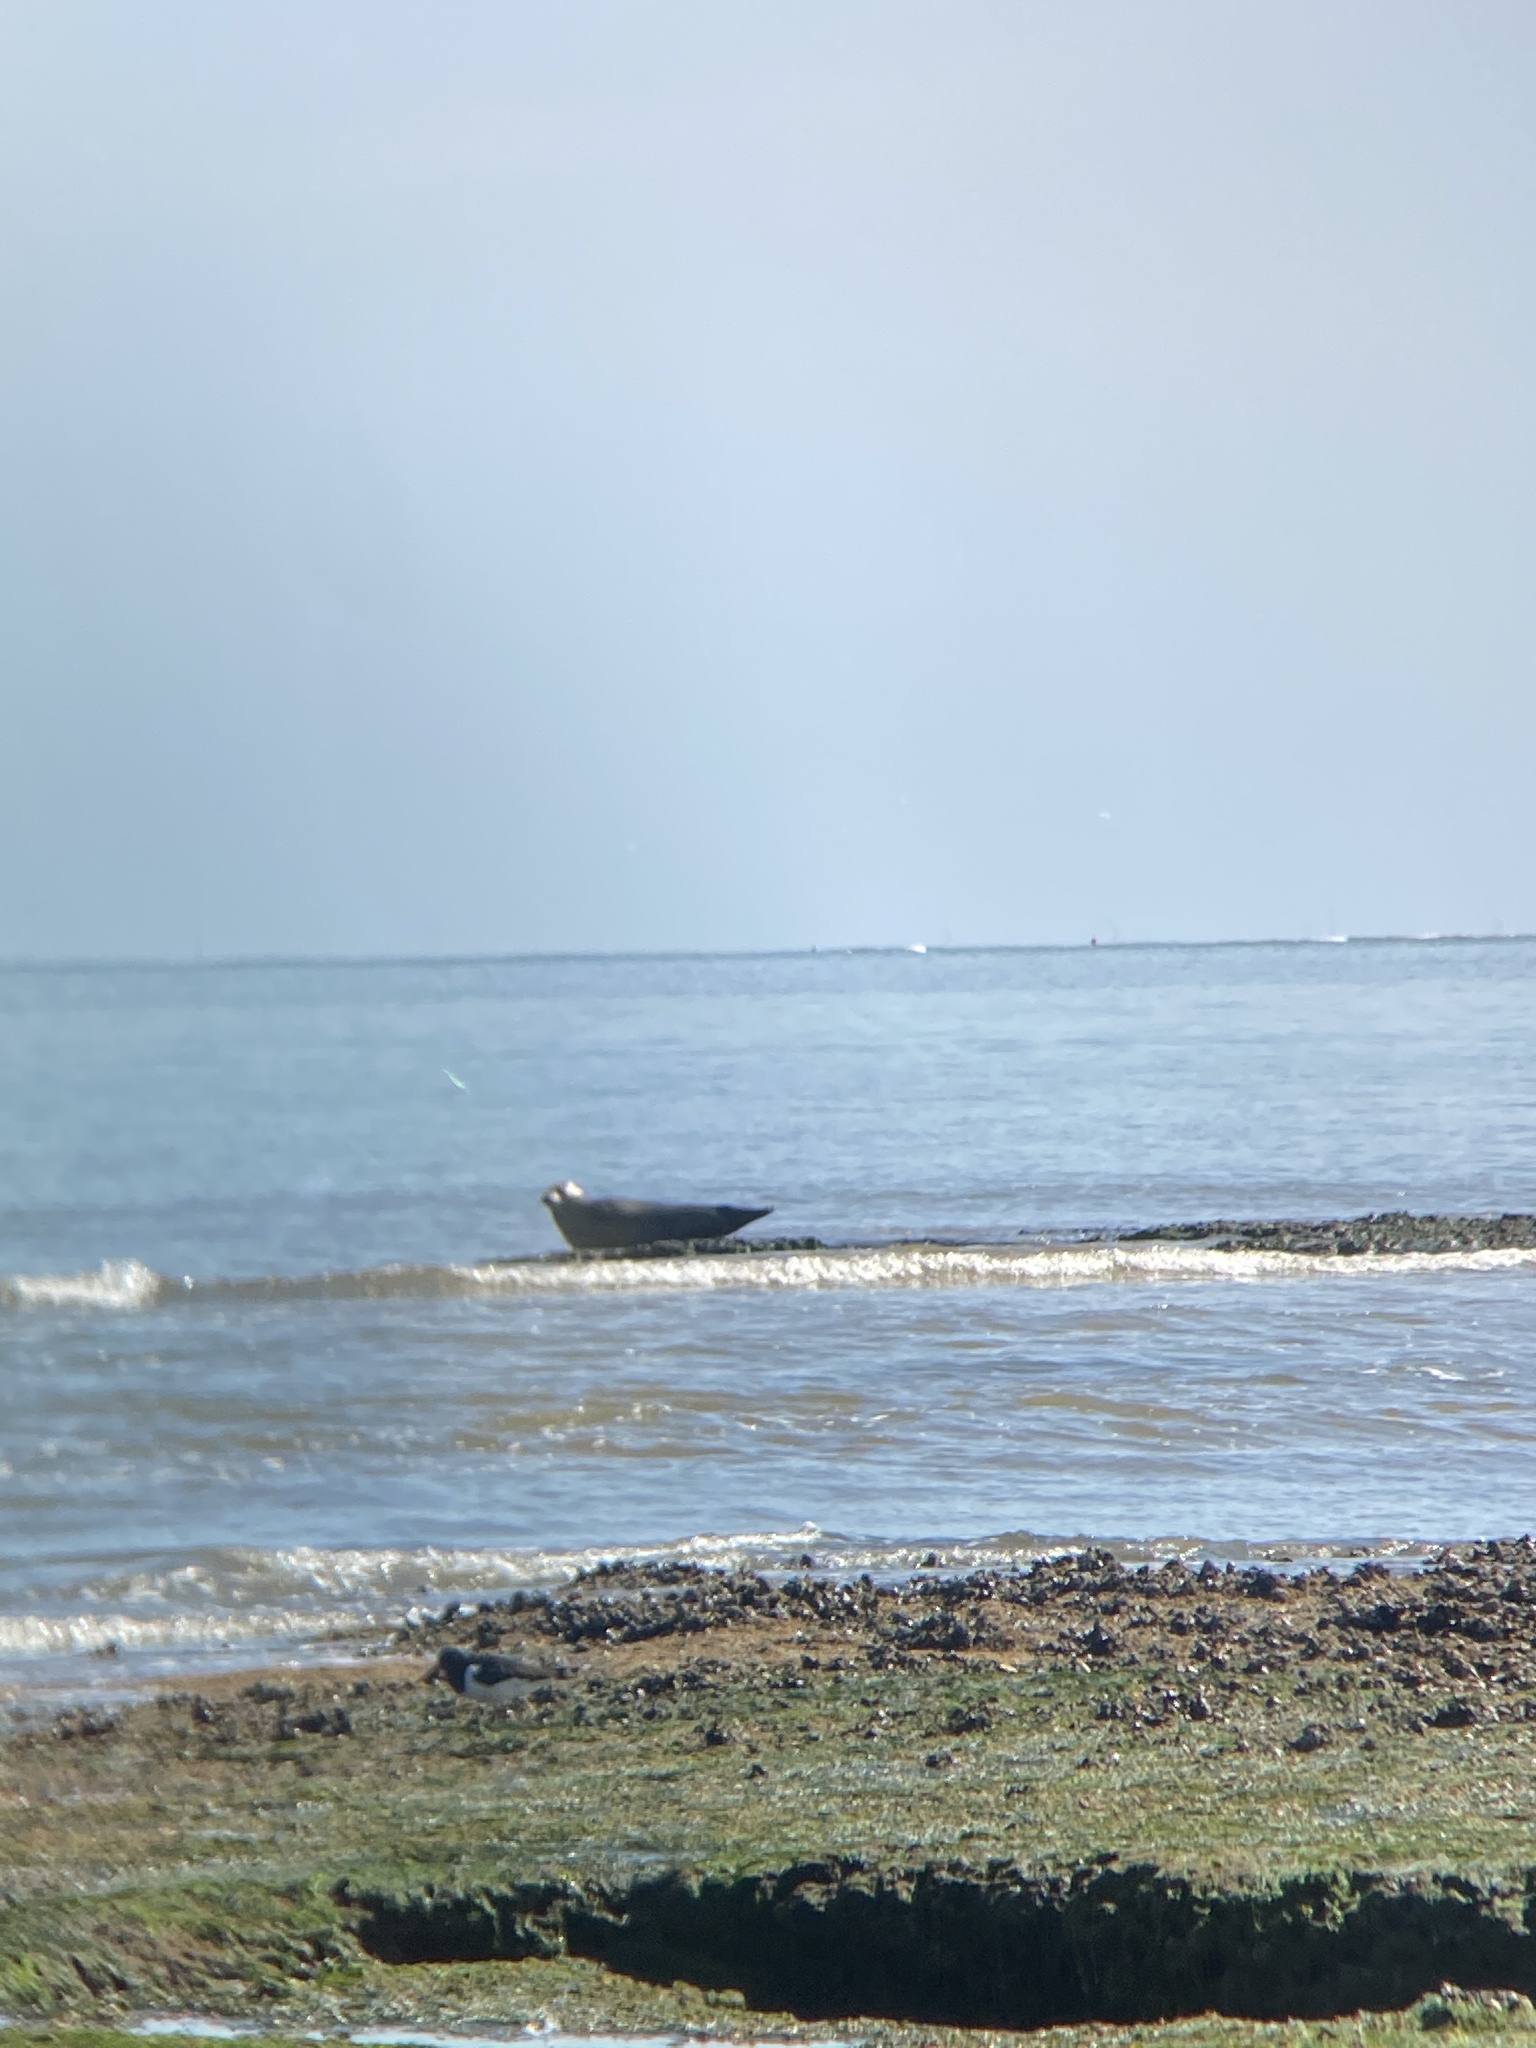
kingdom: Animalia
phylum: Chordata
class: Mammalia
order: Carnivora
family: Phocidae
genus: Halichoerus
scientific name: Halichoerus grypus
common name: Grey seal
